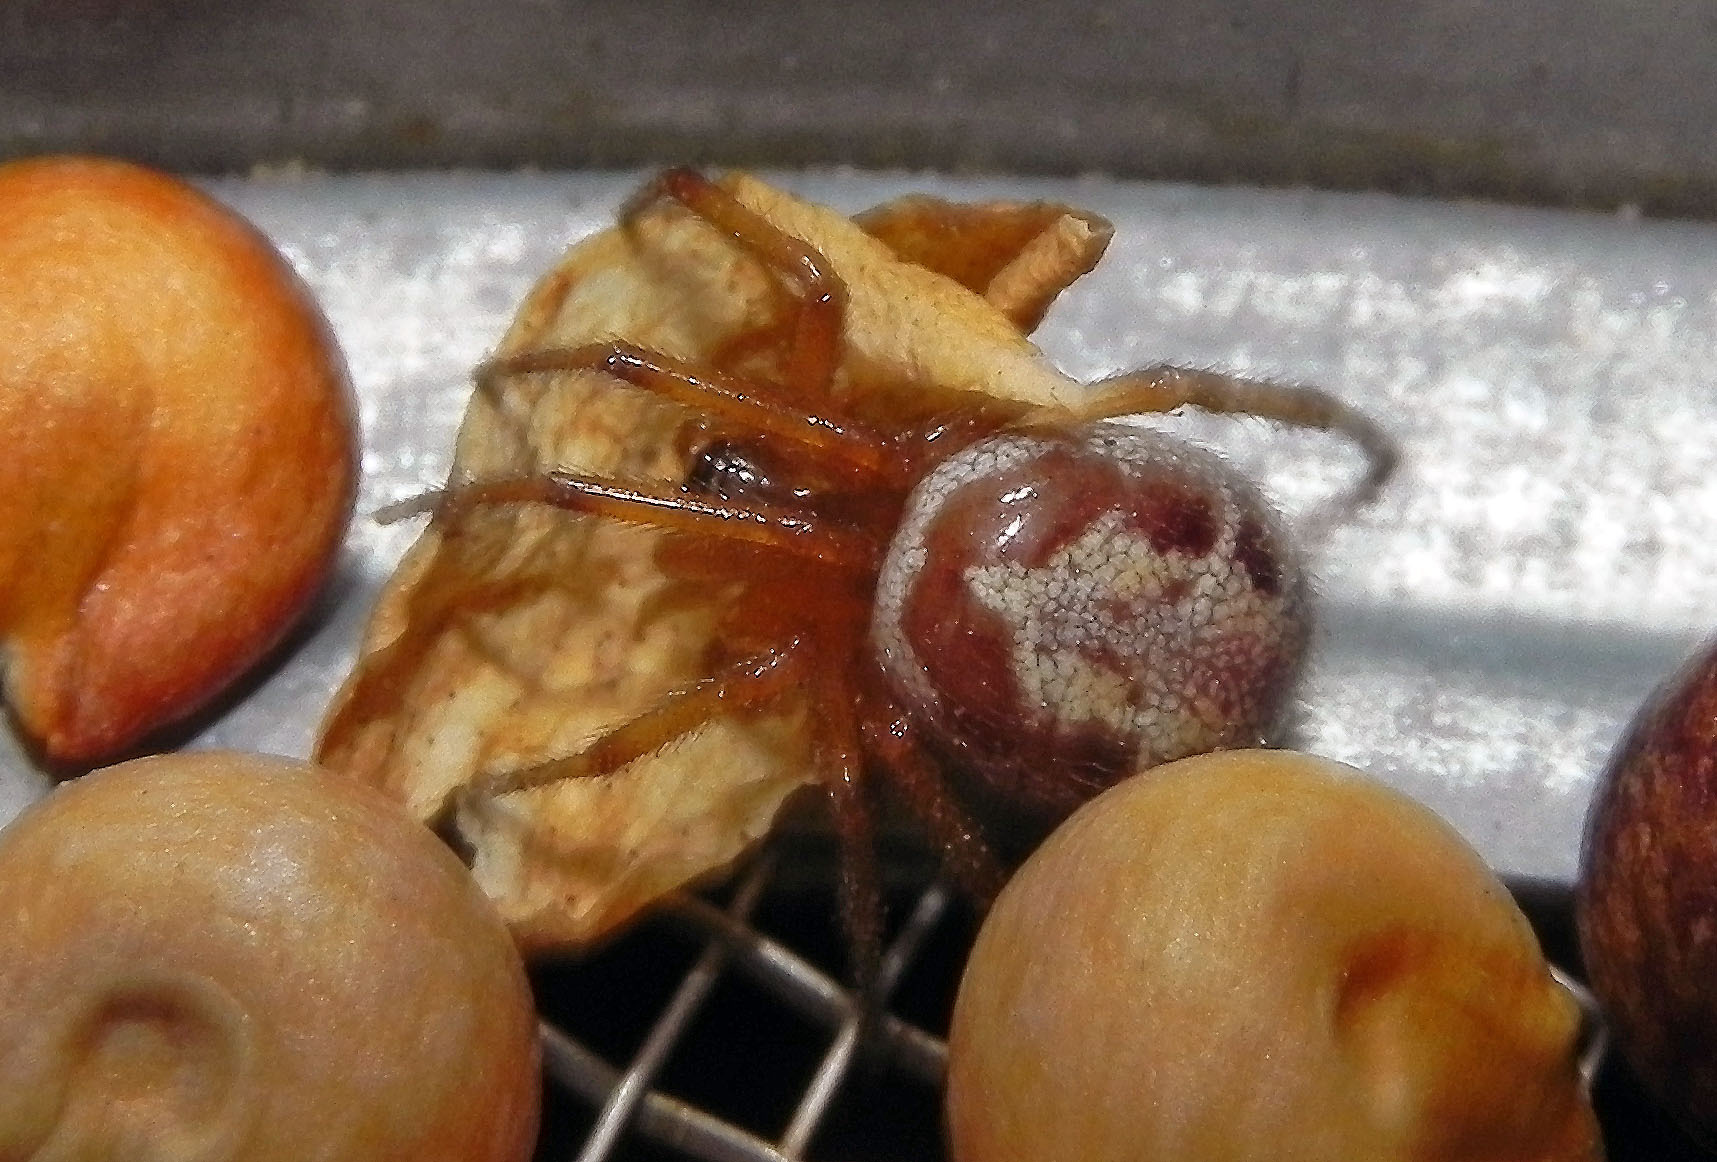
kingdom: Animalia
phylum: Arthropoda
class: Arachnida
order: Araneae
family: Theridiidae
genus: Steatoda
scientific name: Steatoda nobilis
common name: Cobweb weaver
